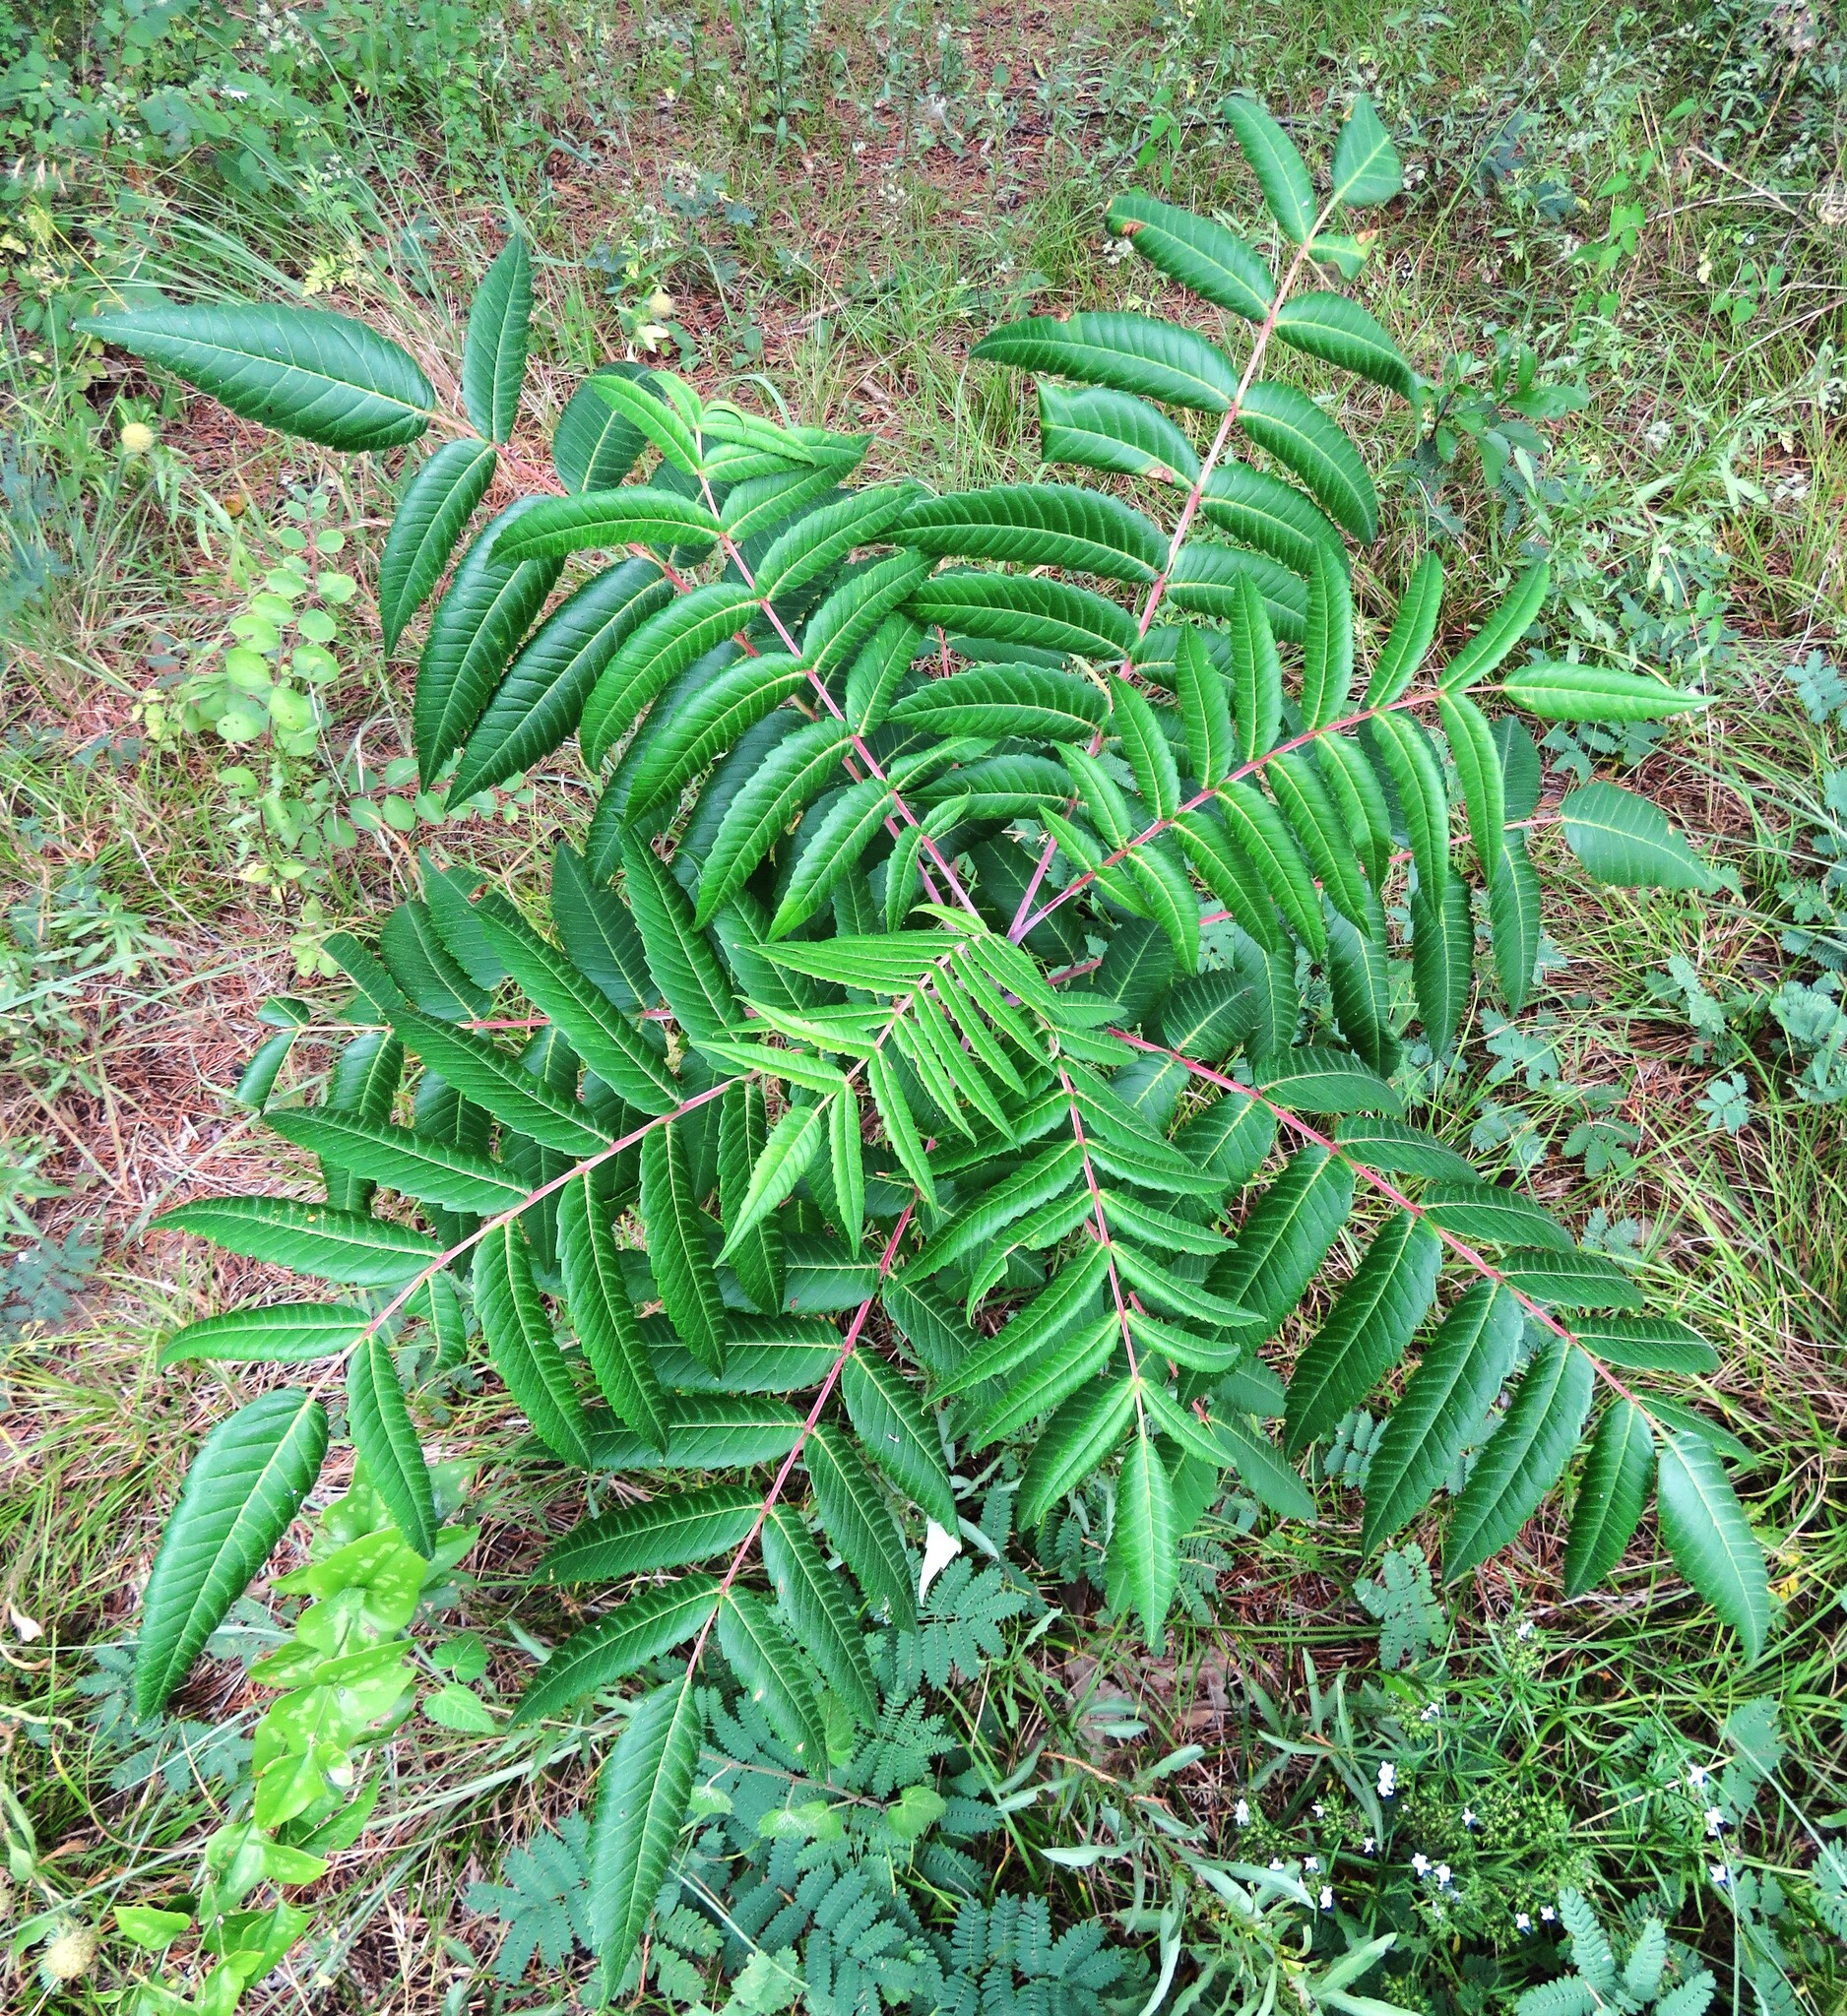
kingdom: Plantae
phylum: Tracheophyta
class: Magnoliopsida
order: Sapindales
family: Anacardiaceae
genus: Rhus
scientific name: Rhus glabra
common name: Scarlet sumac
